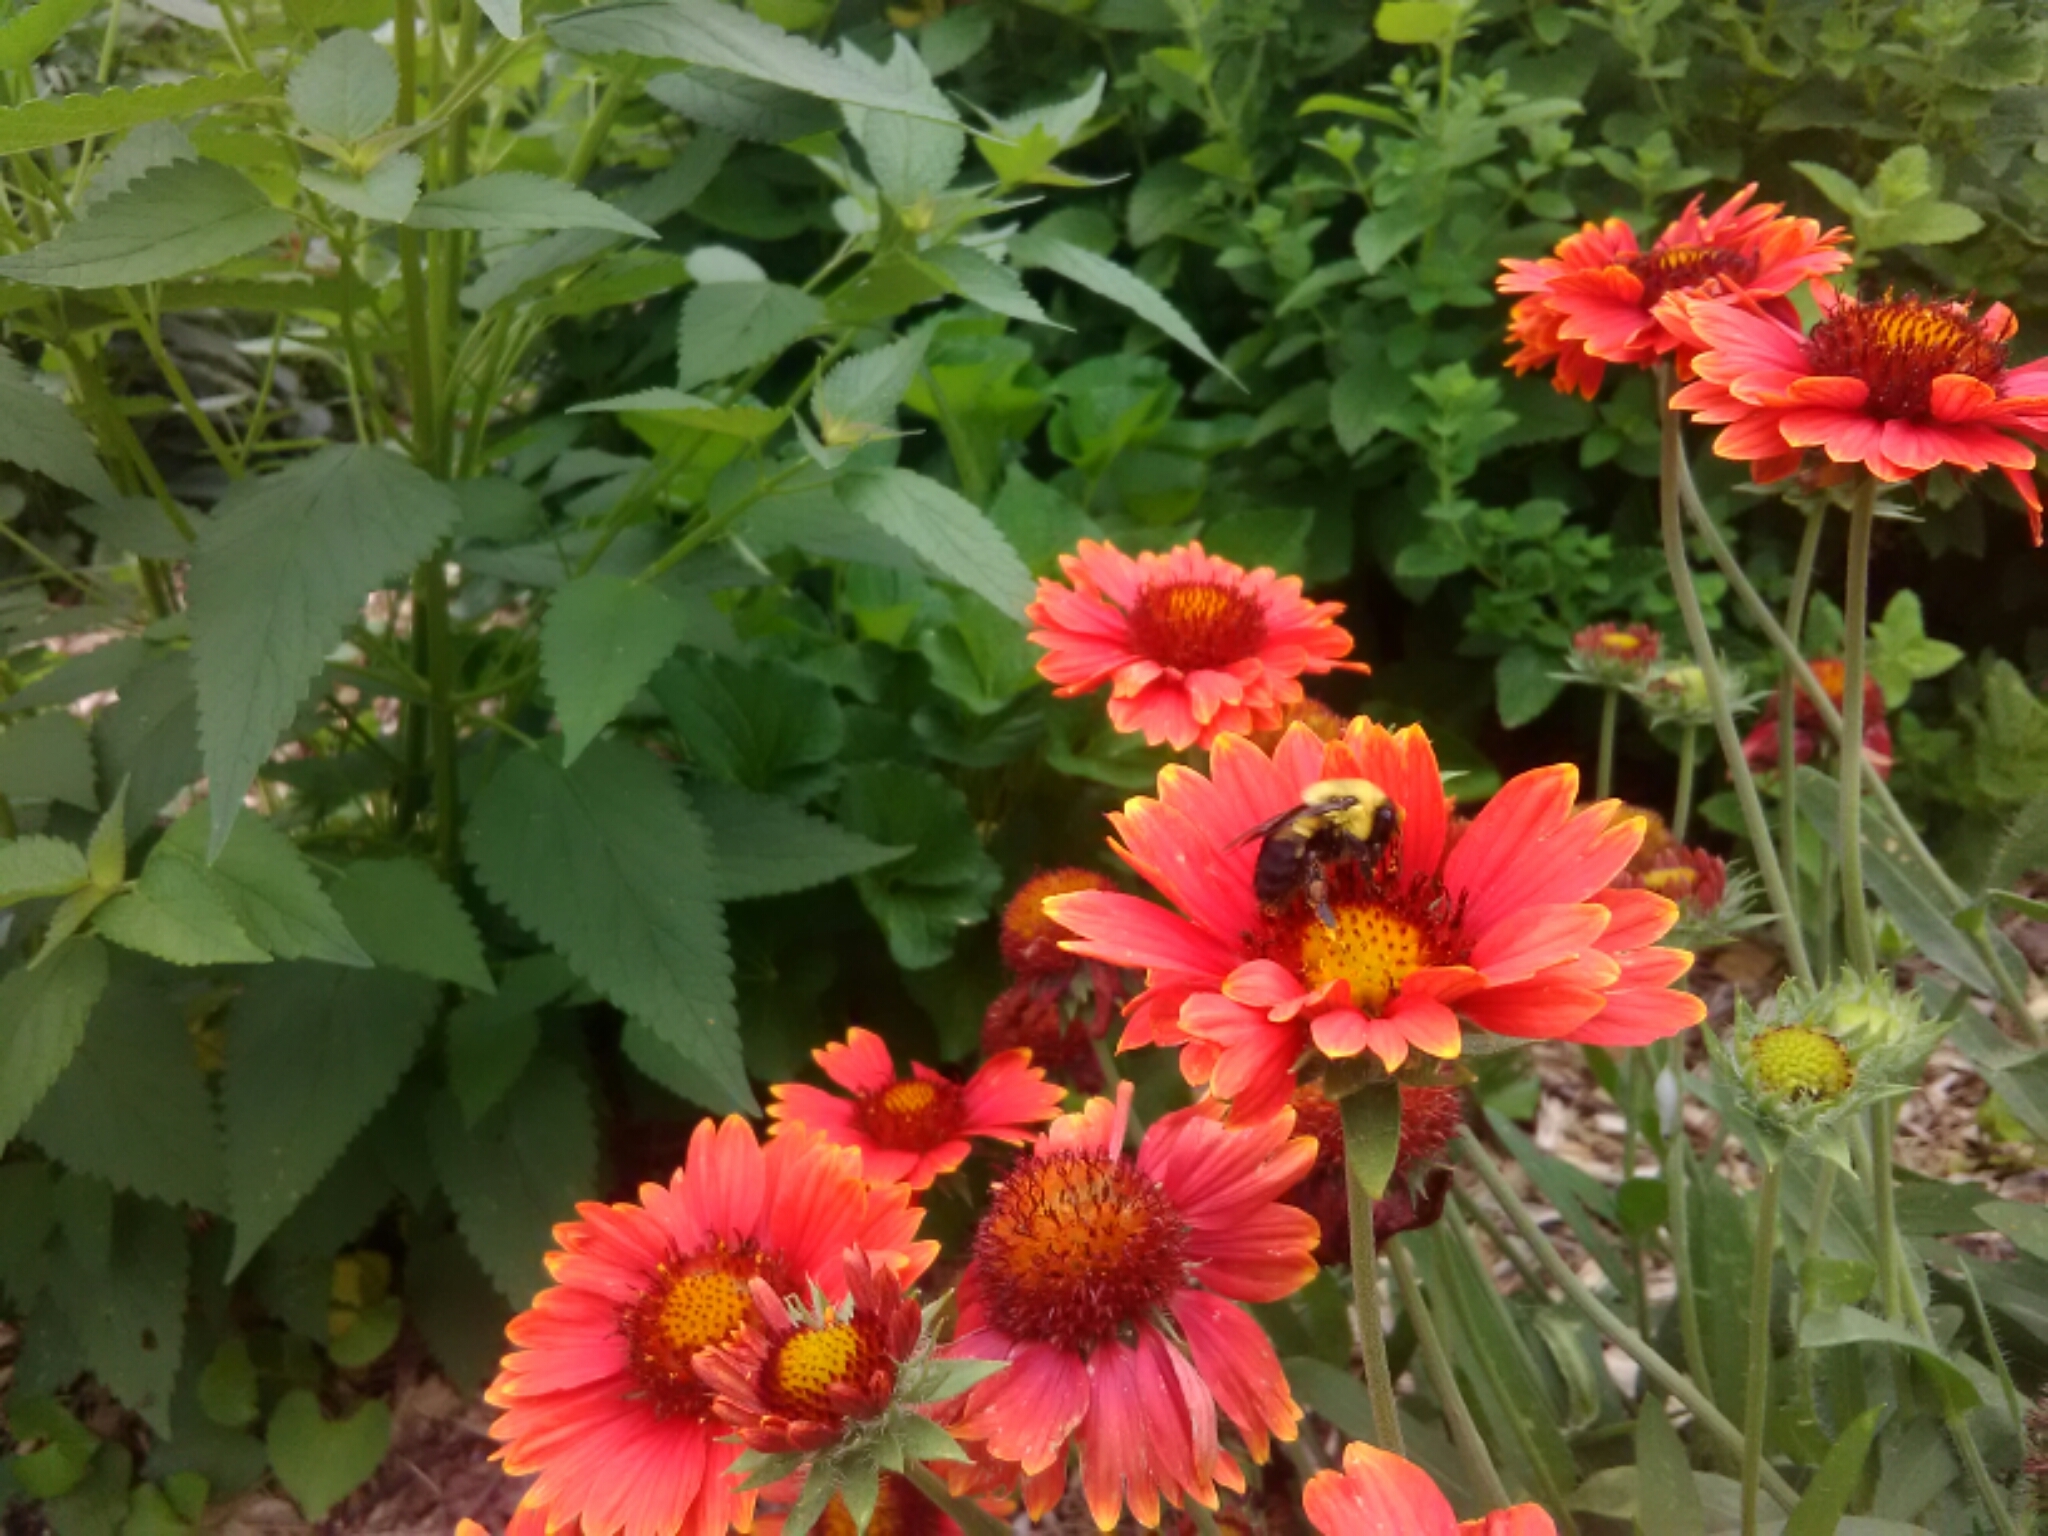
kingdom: Animalia
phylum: Arthropoda
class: Insecta
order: Hymenoptera
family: Apidae
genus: Bombus
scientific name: Bombus griseocollis
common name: Brown-belted bumble bee
